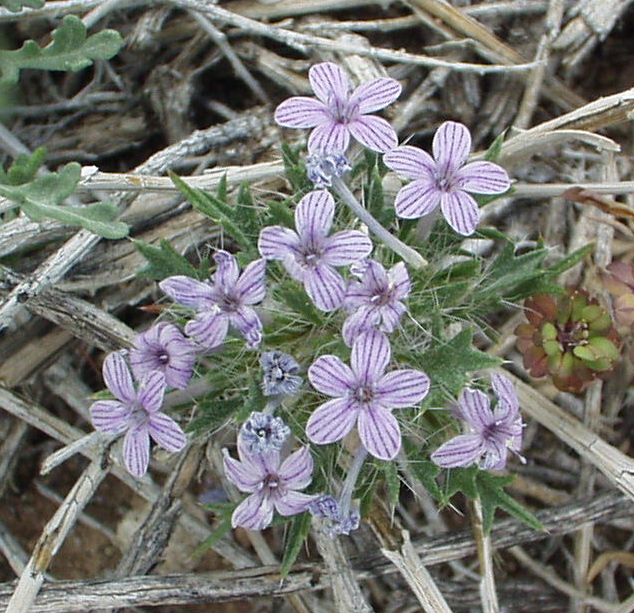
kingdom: Plantae
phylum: Tracheophyta
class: Magnoliopsida
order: Ericales
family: Polemoniaceae
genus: Langloisia
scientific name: Langloisia setosissima
